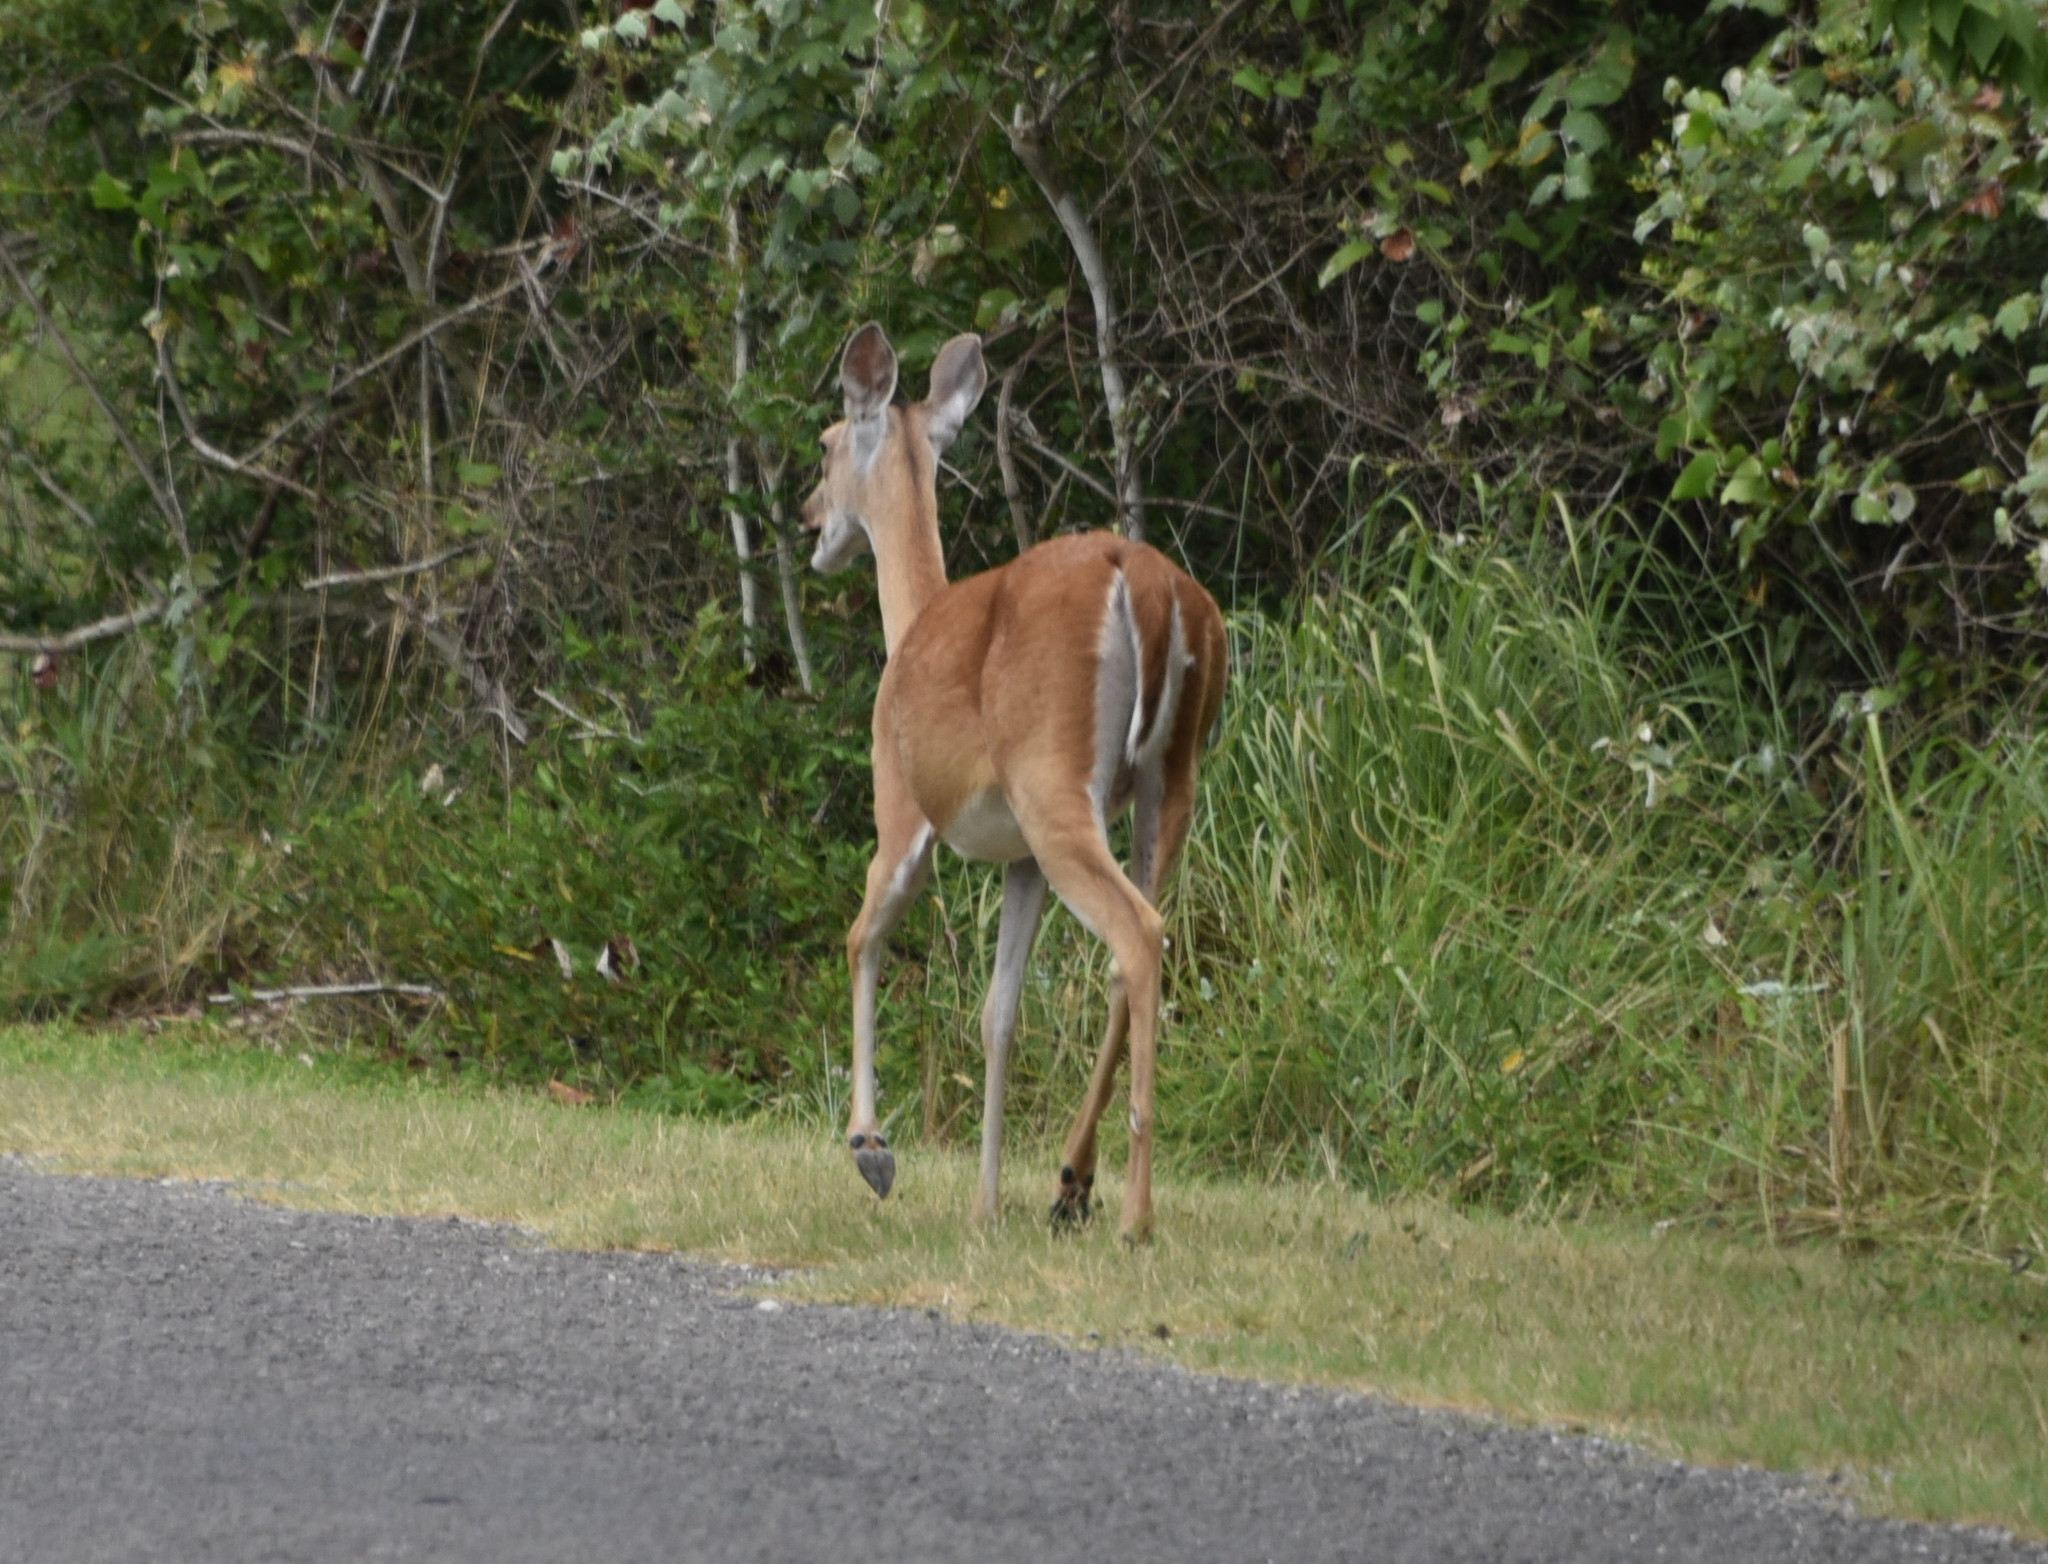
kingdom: Animalia
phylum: Chordata
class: Mammalia
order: Artiodactyla
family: Cervidae
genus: Odocoileus
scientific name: Odocoileus virginianus
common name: White-tailed deer
